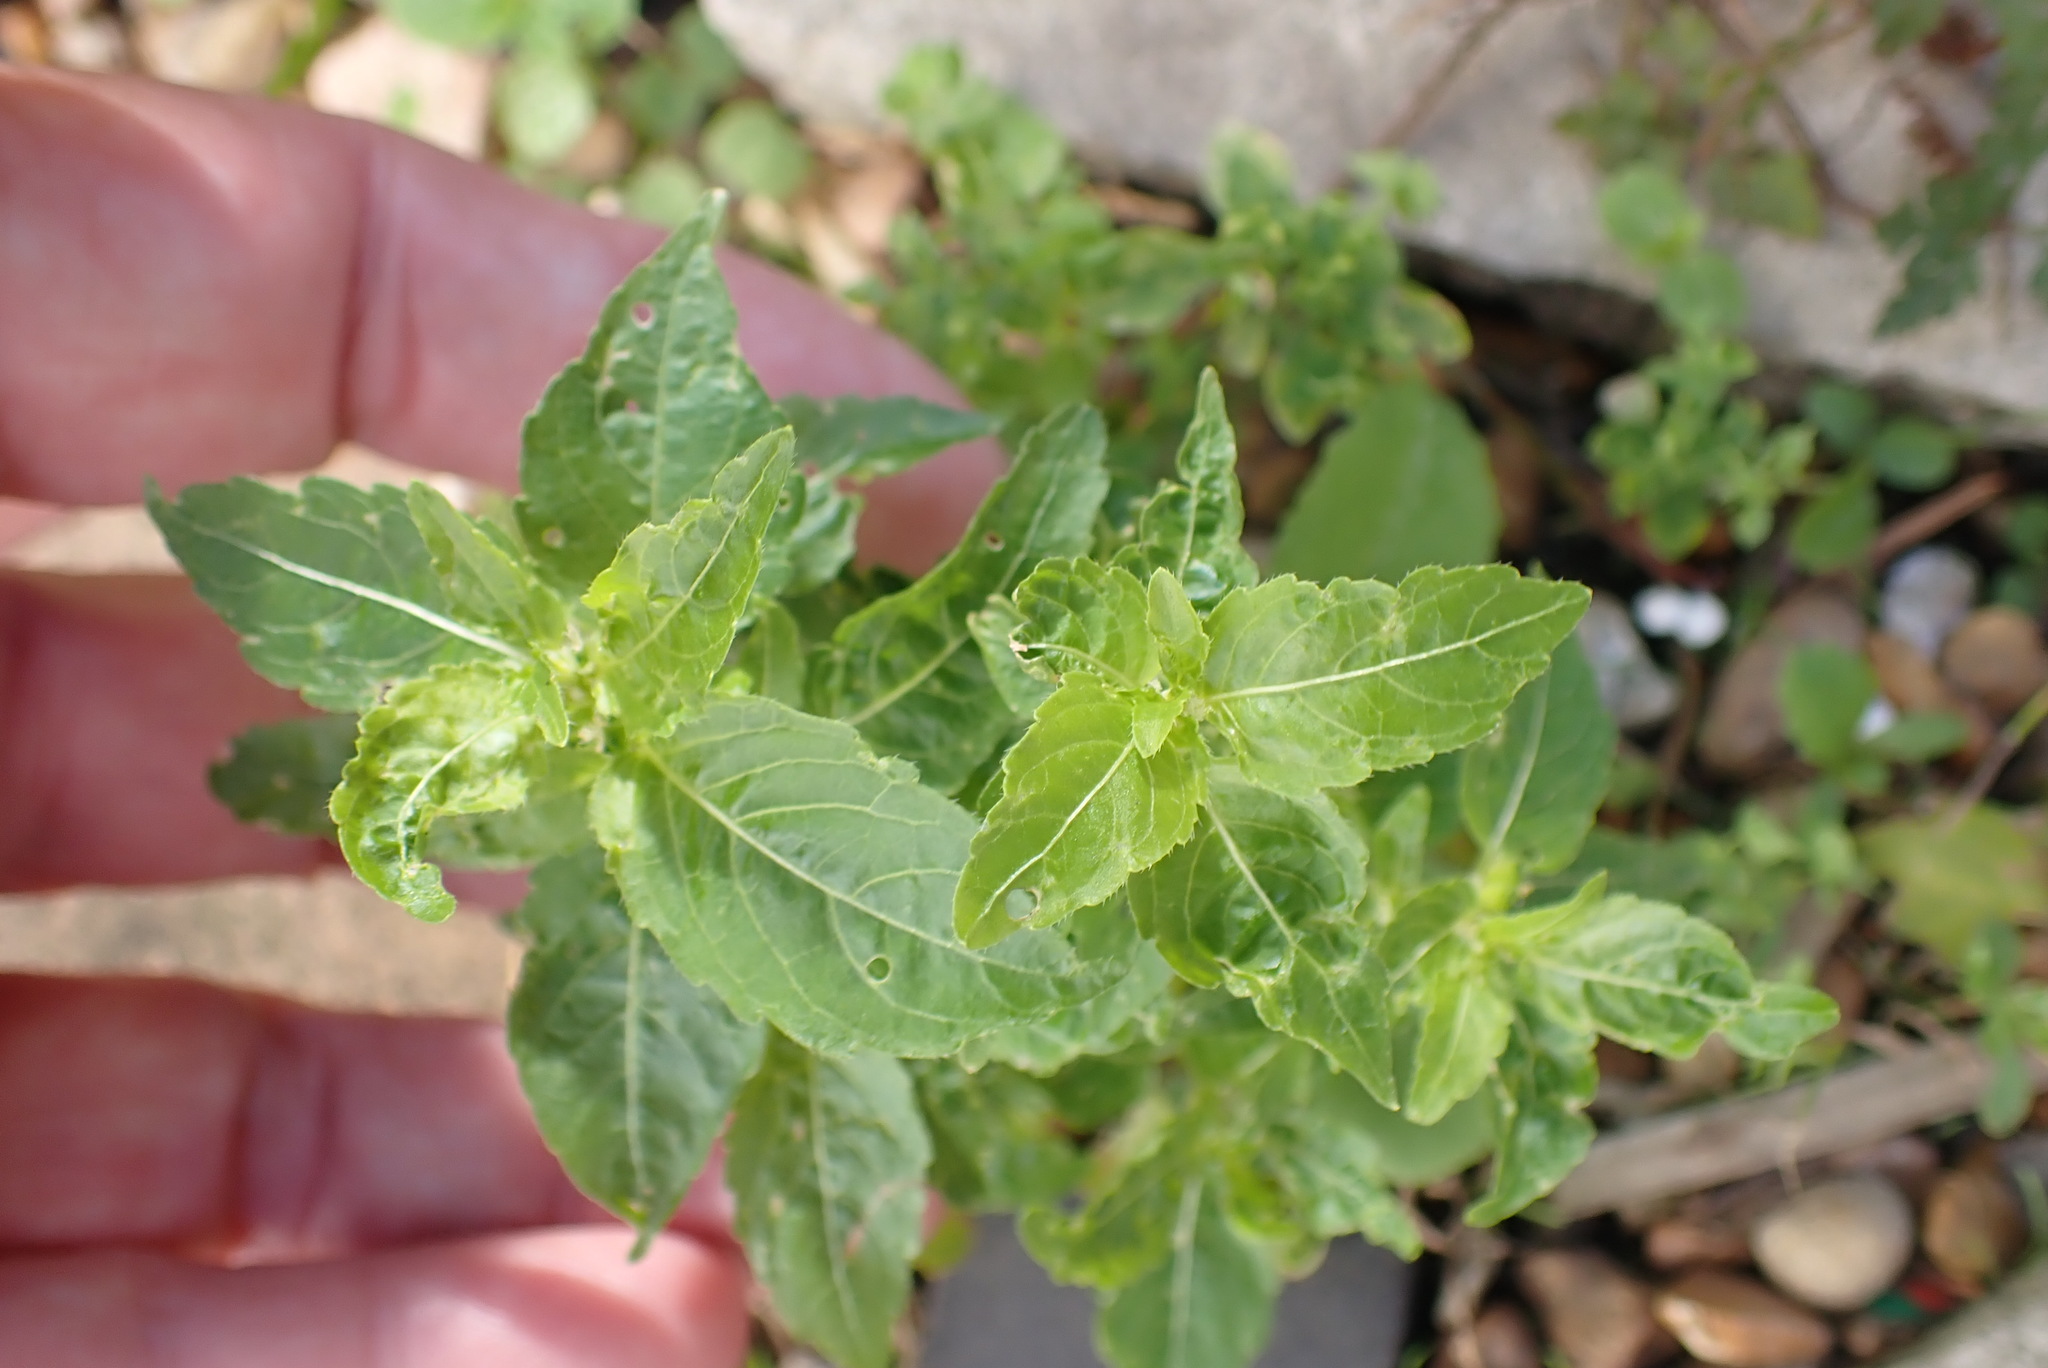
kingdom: Plantae
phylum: Tracheophyta
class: Magnoliopsida
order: Malpighiales
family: Euphorbiaceae
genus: Mercurialis
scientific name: Mercurialis annua
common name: Annual mercury
